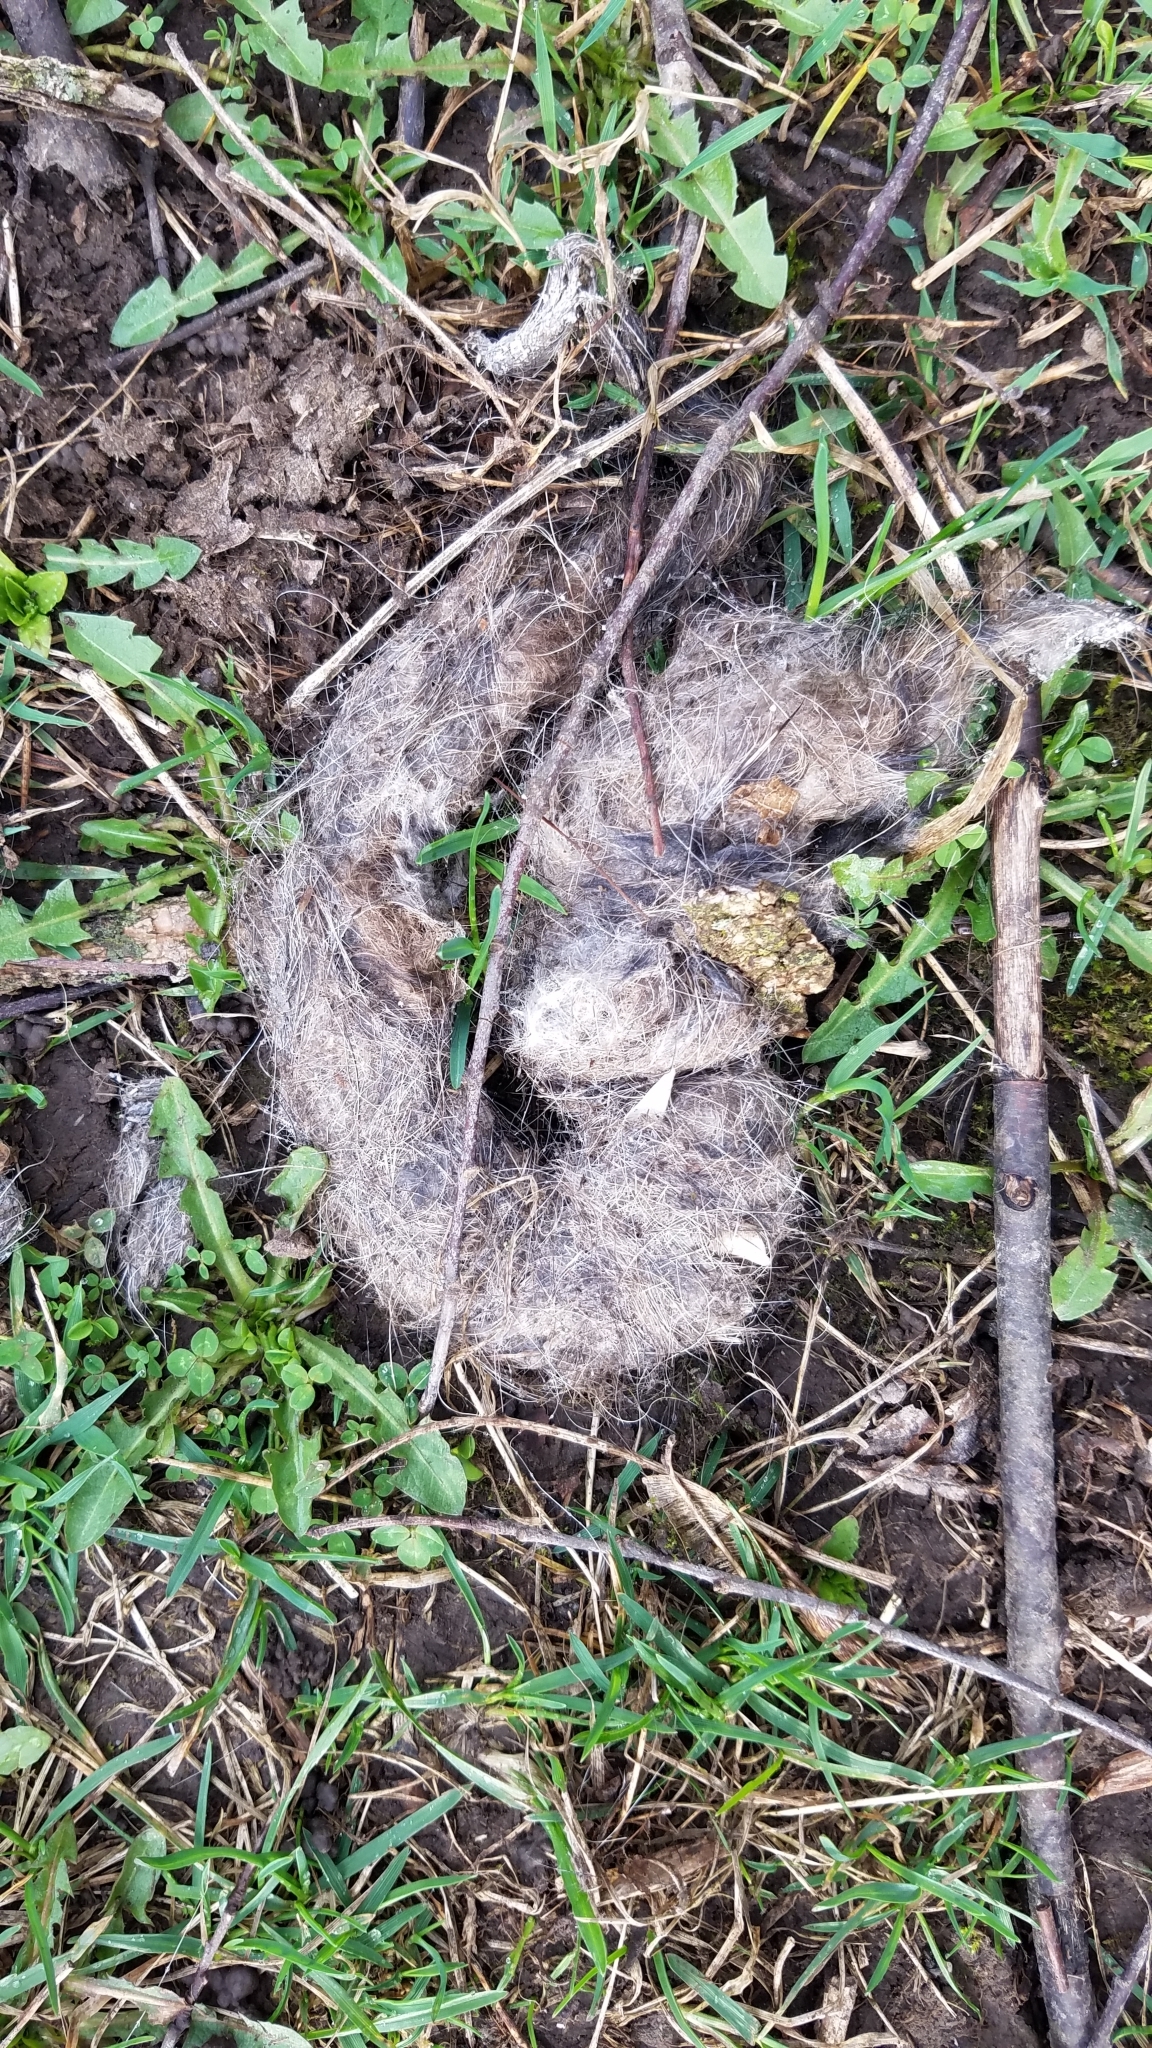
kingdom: Animalia
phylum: Chordata
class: Mammalia
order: Carnivora
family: Canidae
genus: Canis
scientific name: Canis latrans
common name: Coyote
